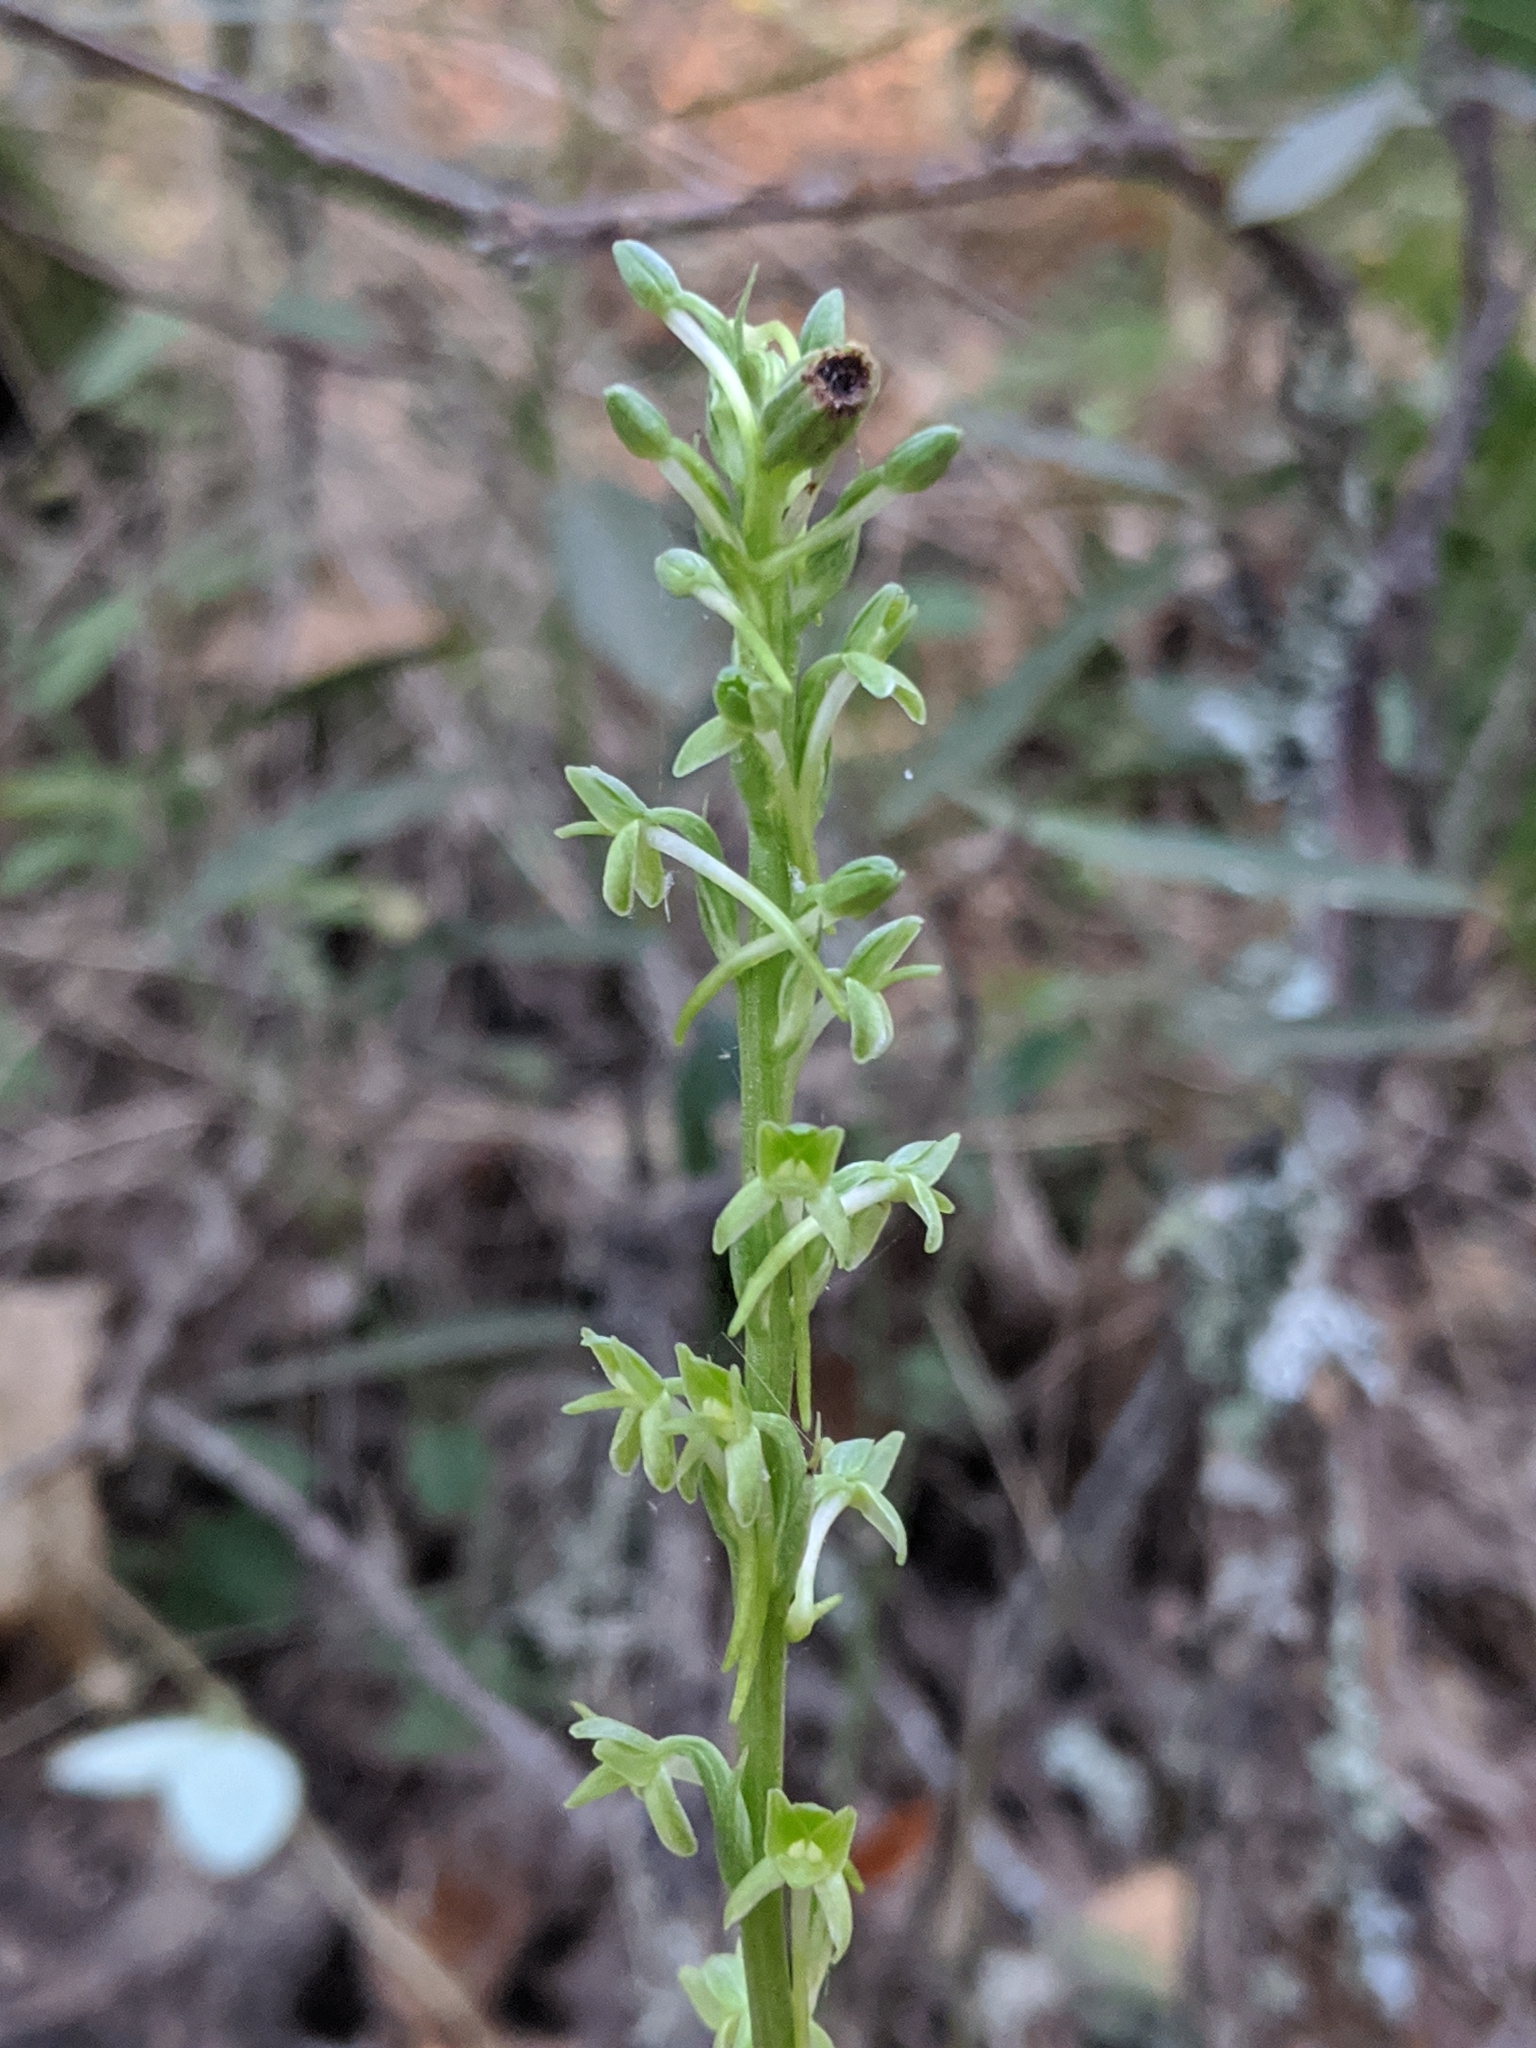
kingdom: Plantae
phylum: Tracheophyta
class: Liliopsida
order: Asparagales
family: Orchidaceae
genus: Platanthera
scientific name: Platanthera elongata
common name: Dense-flowered rein orchid
